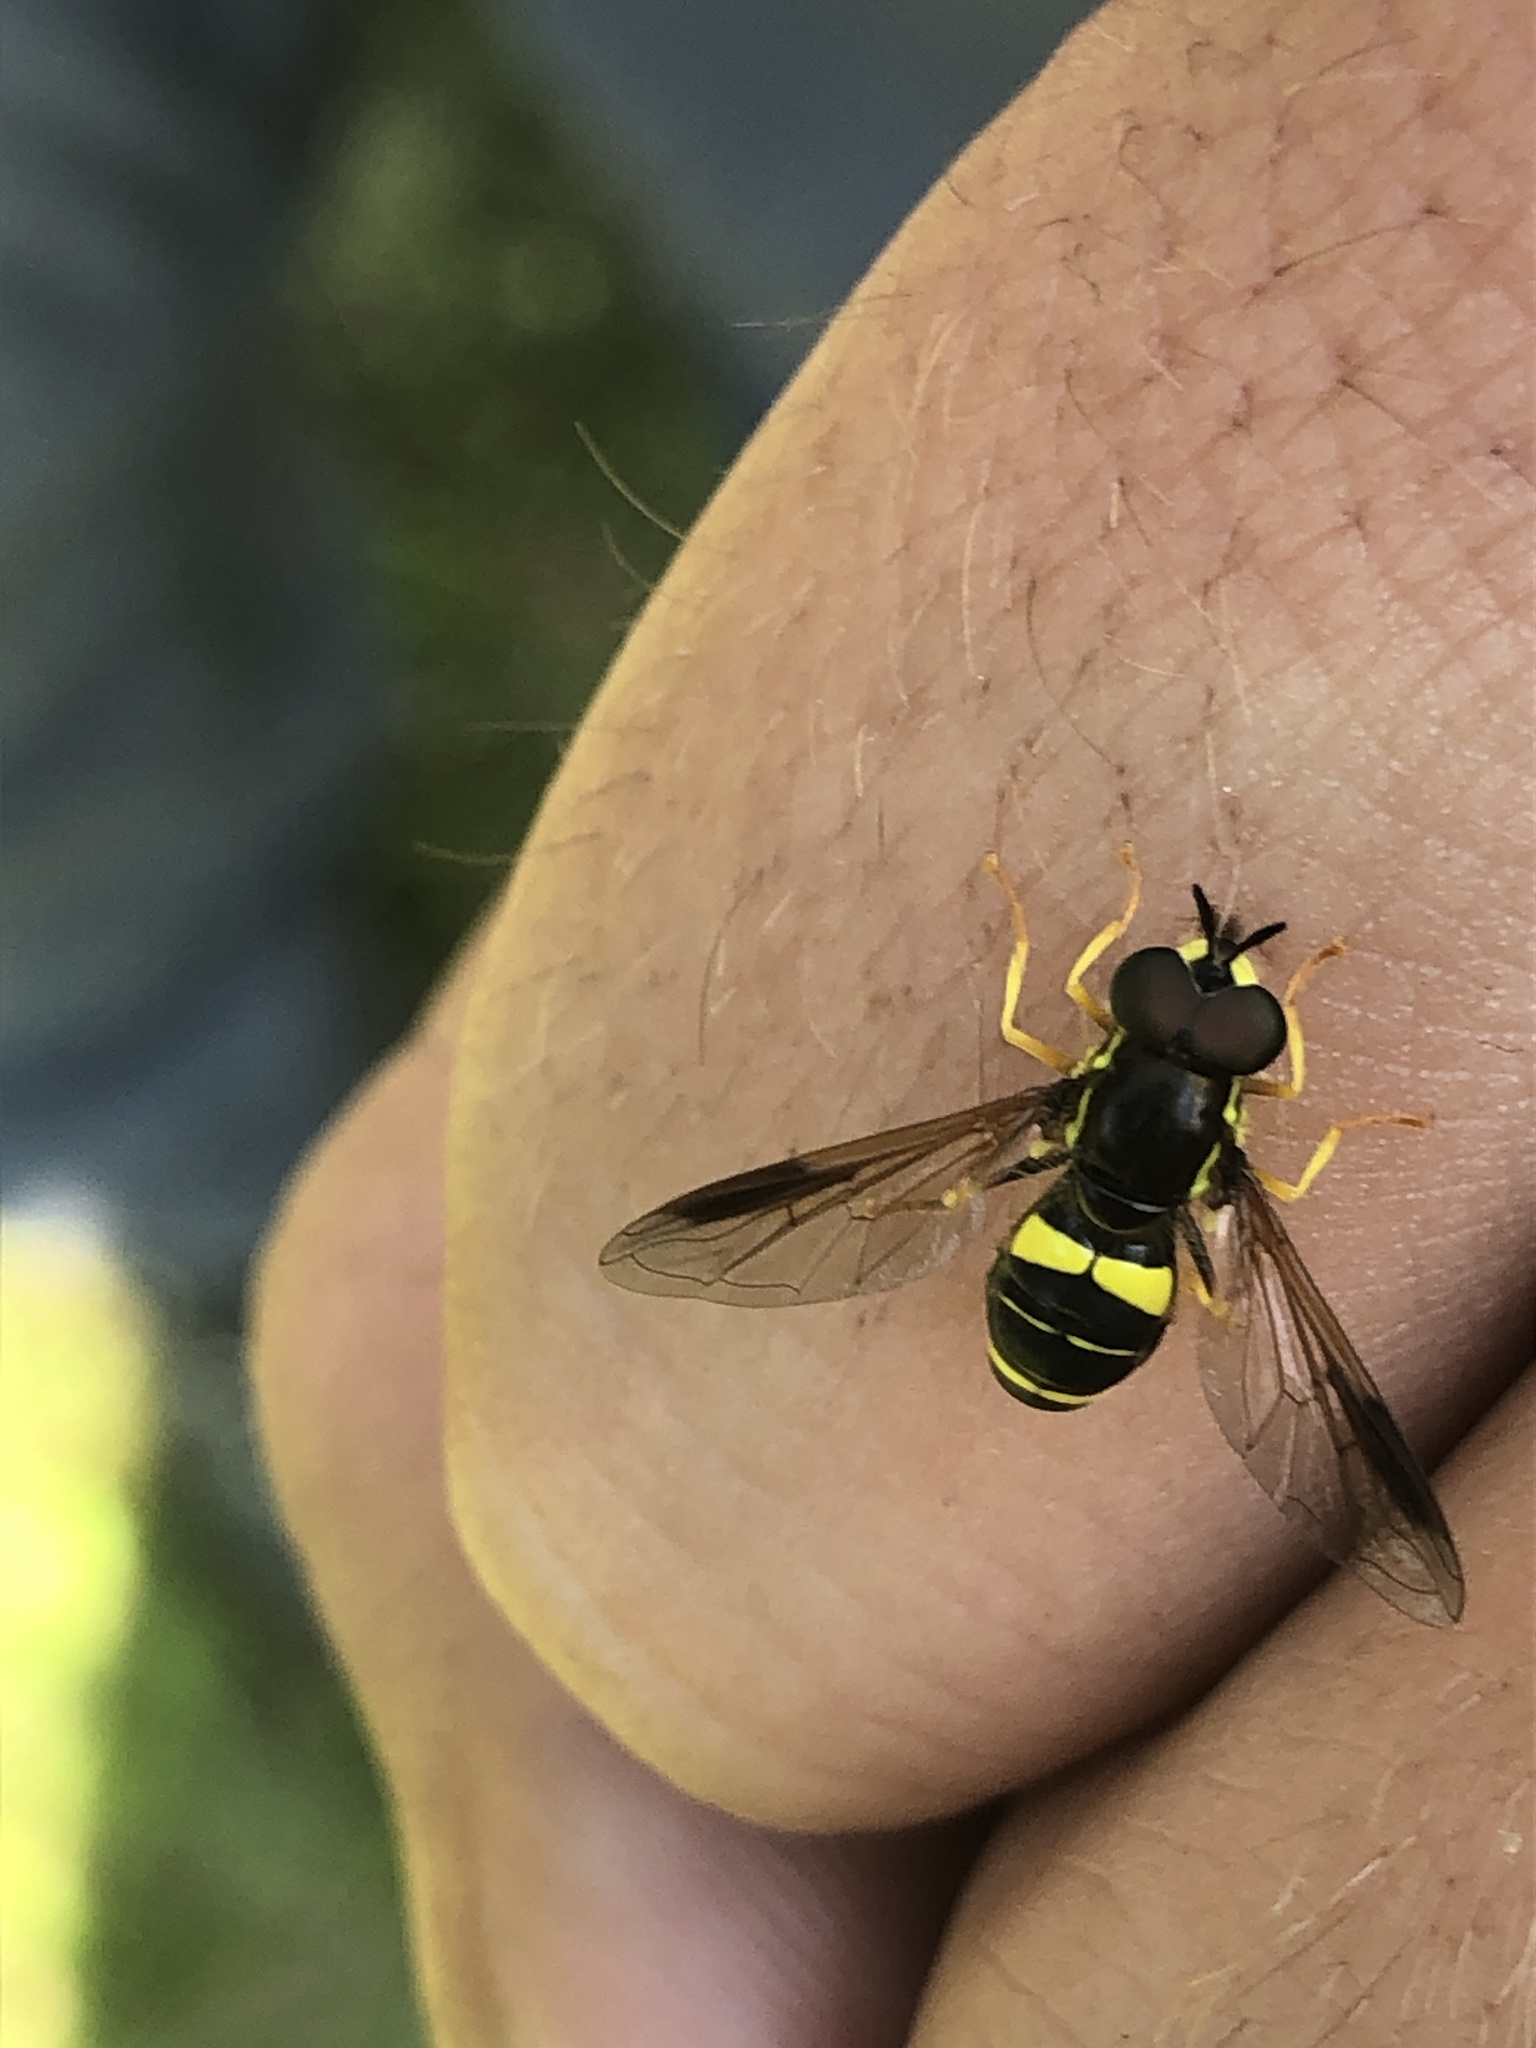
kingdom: Animalia
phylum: Arthropoda
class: Insecta
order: Diptera
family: Syrphidae
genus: Chrysotoxum
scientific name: Chrysotoxum bicincta
